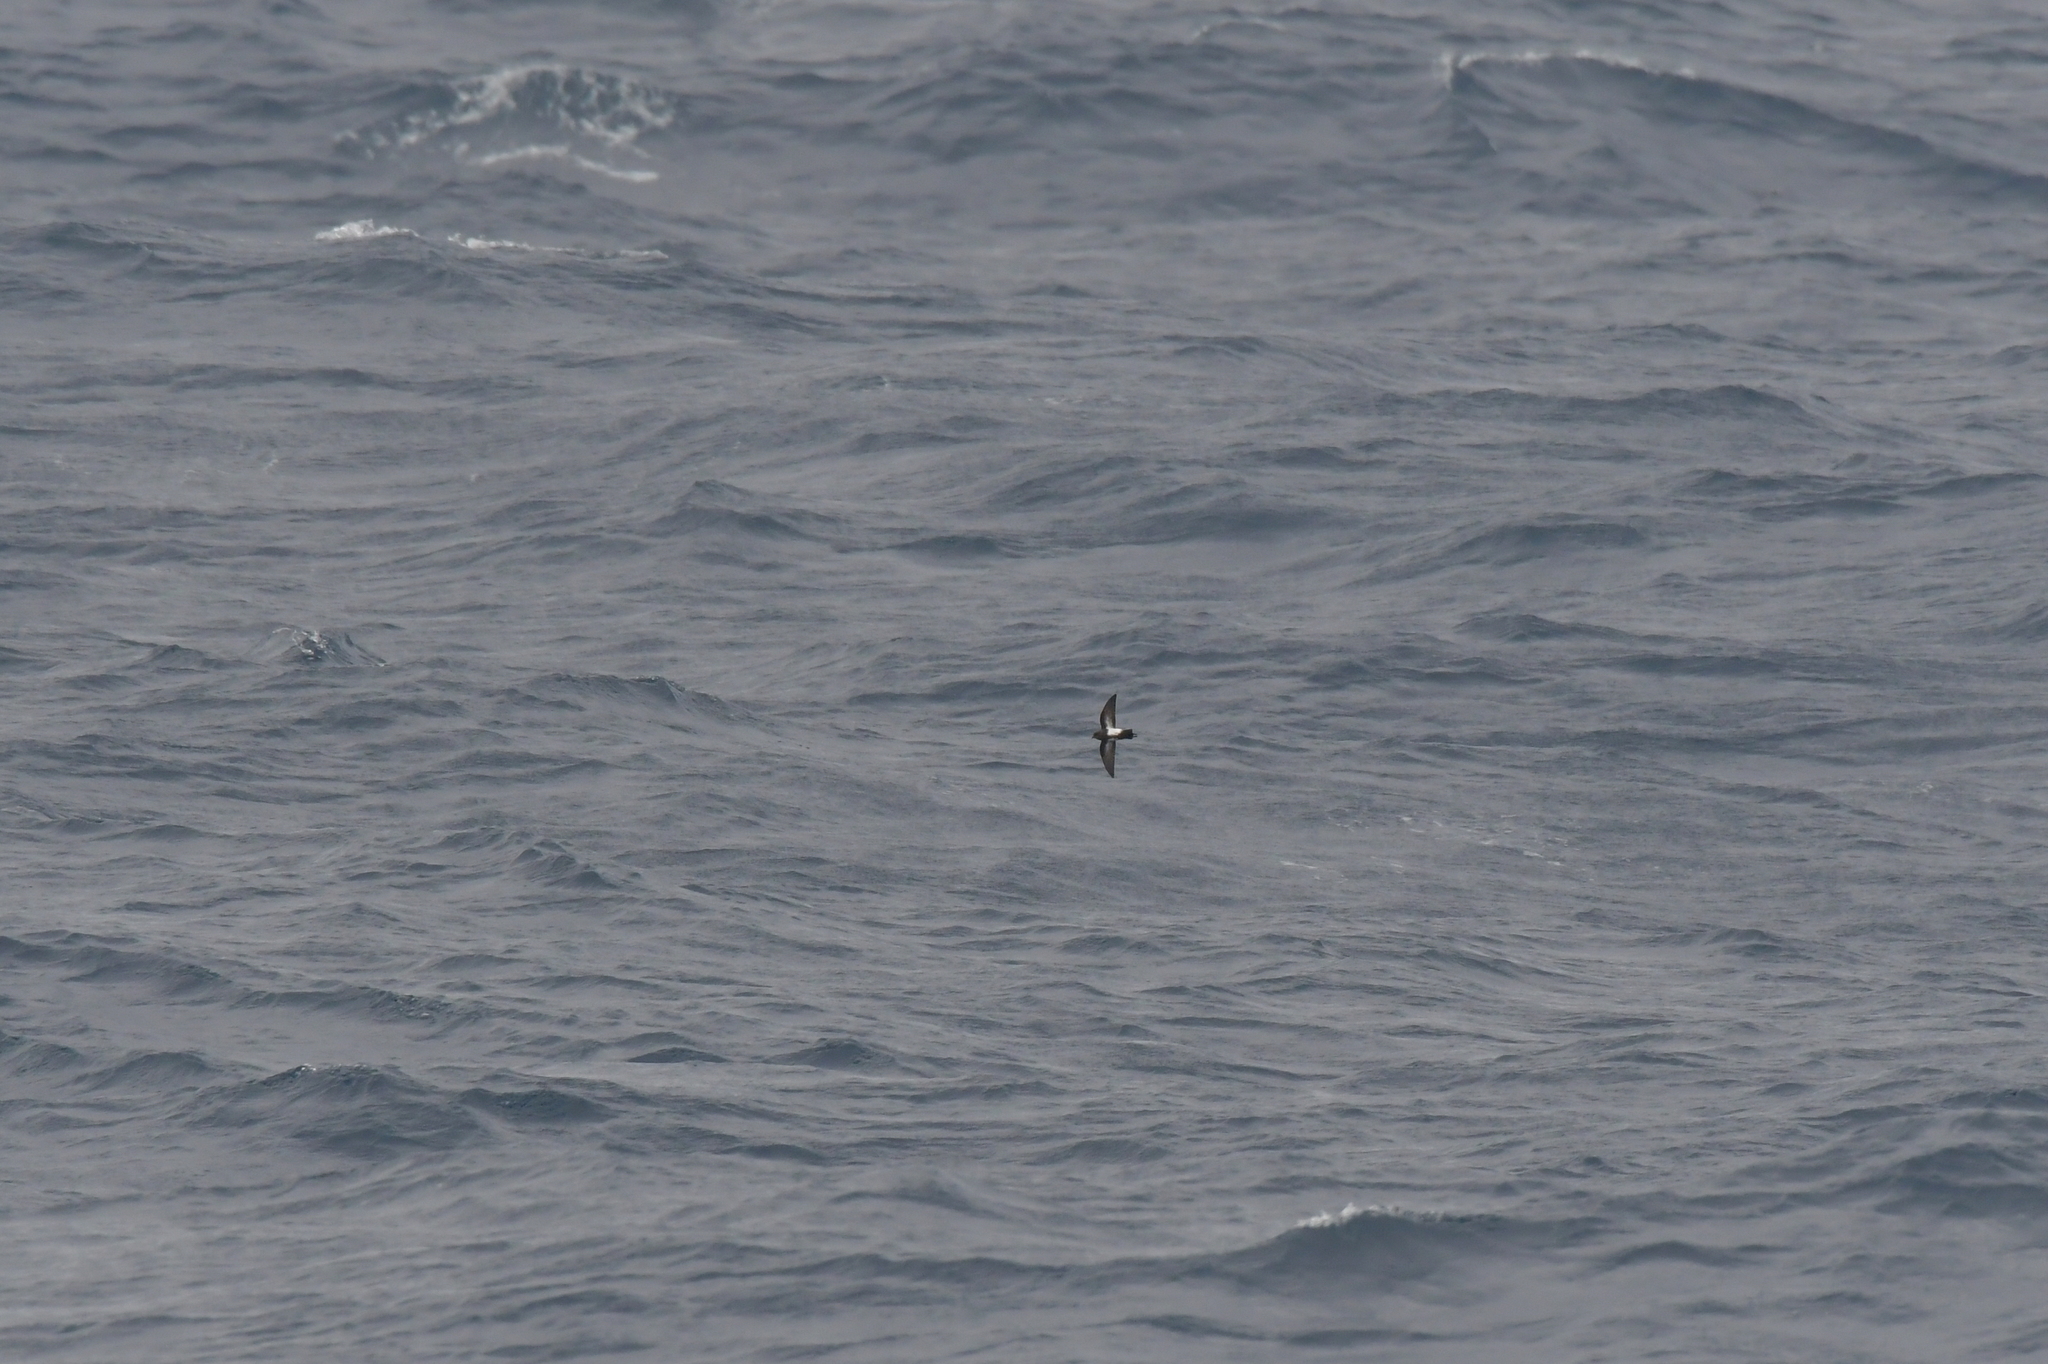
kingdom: Animalia
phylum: Chordata
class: Aves
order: Procellariiformes
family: Hydrobatidae
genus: Fregetta
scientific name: Fregetta tropica
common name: Black-bellied storm-petrel
